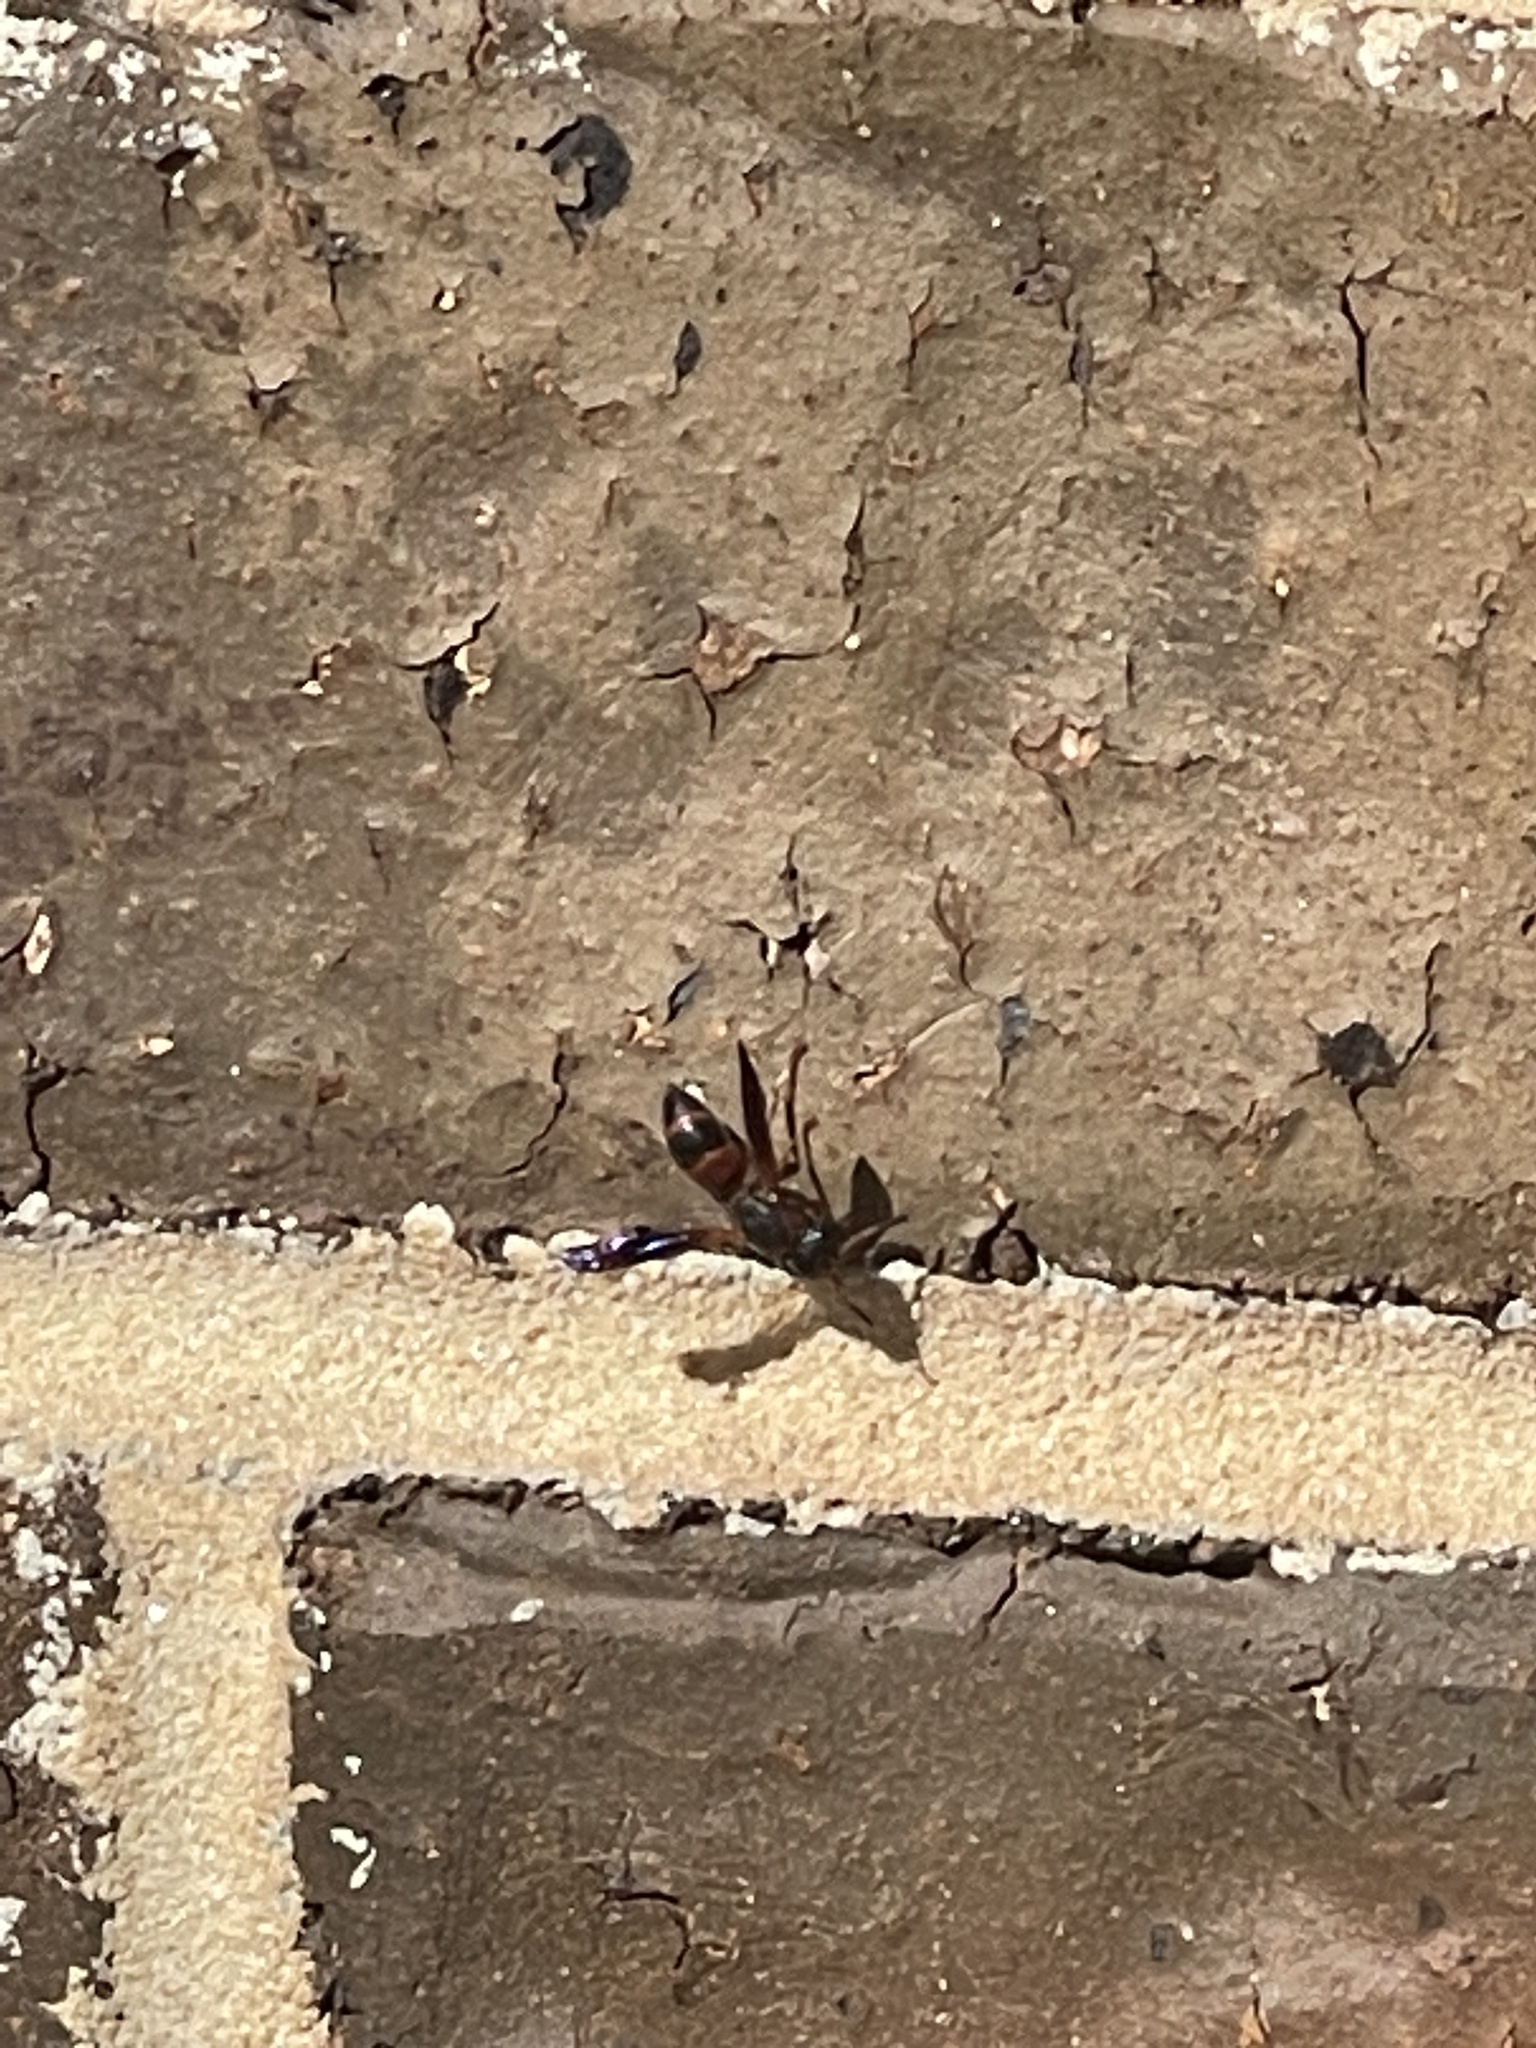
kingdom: Animalia
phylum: Arthropoda
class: Insecta
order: Hymenoptera
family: Eumenidae
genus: Pachodynerus
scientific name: Pachodynerus erynnis
